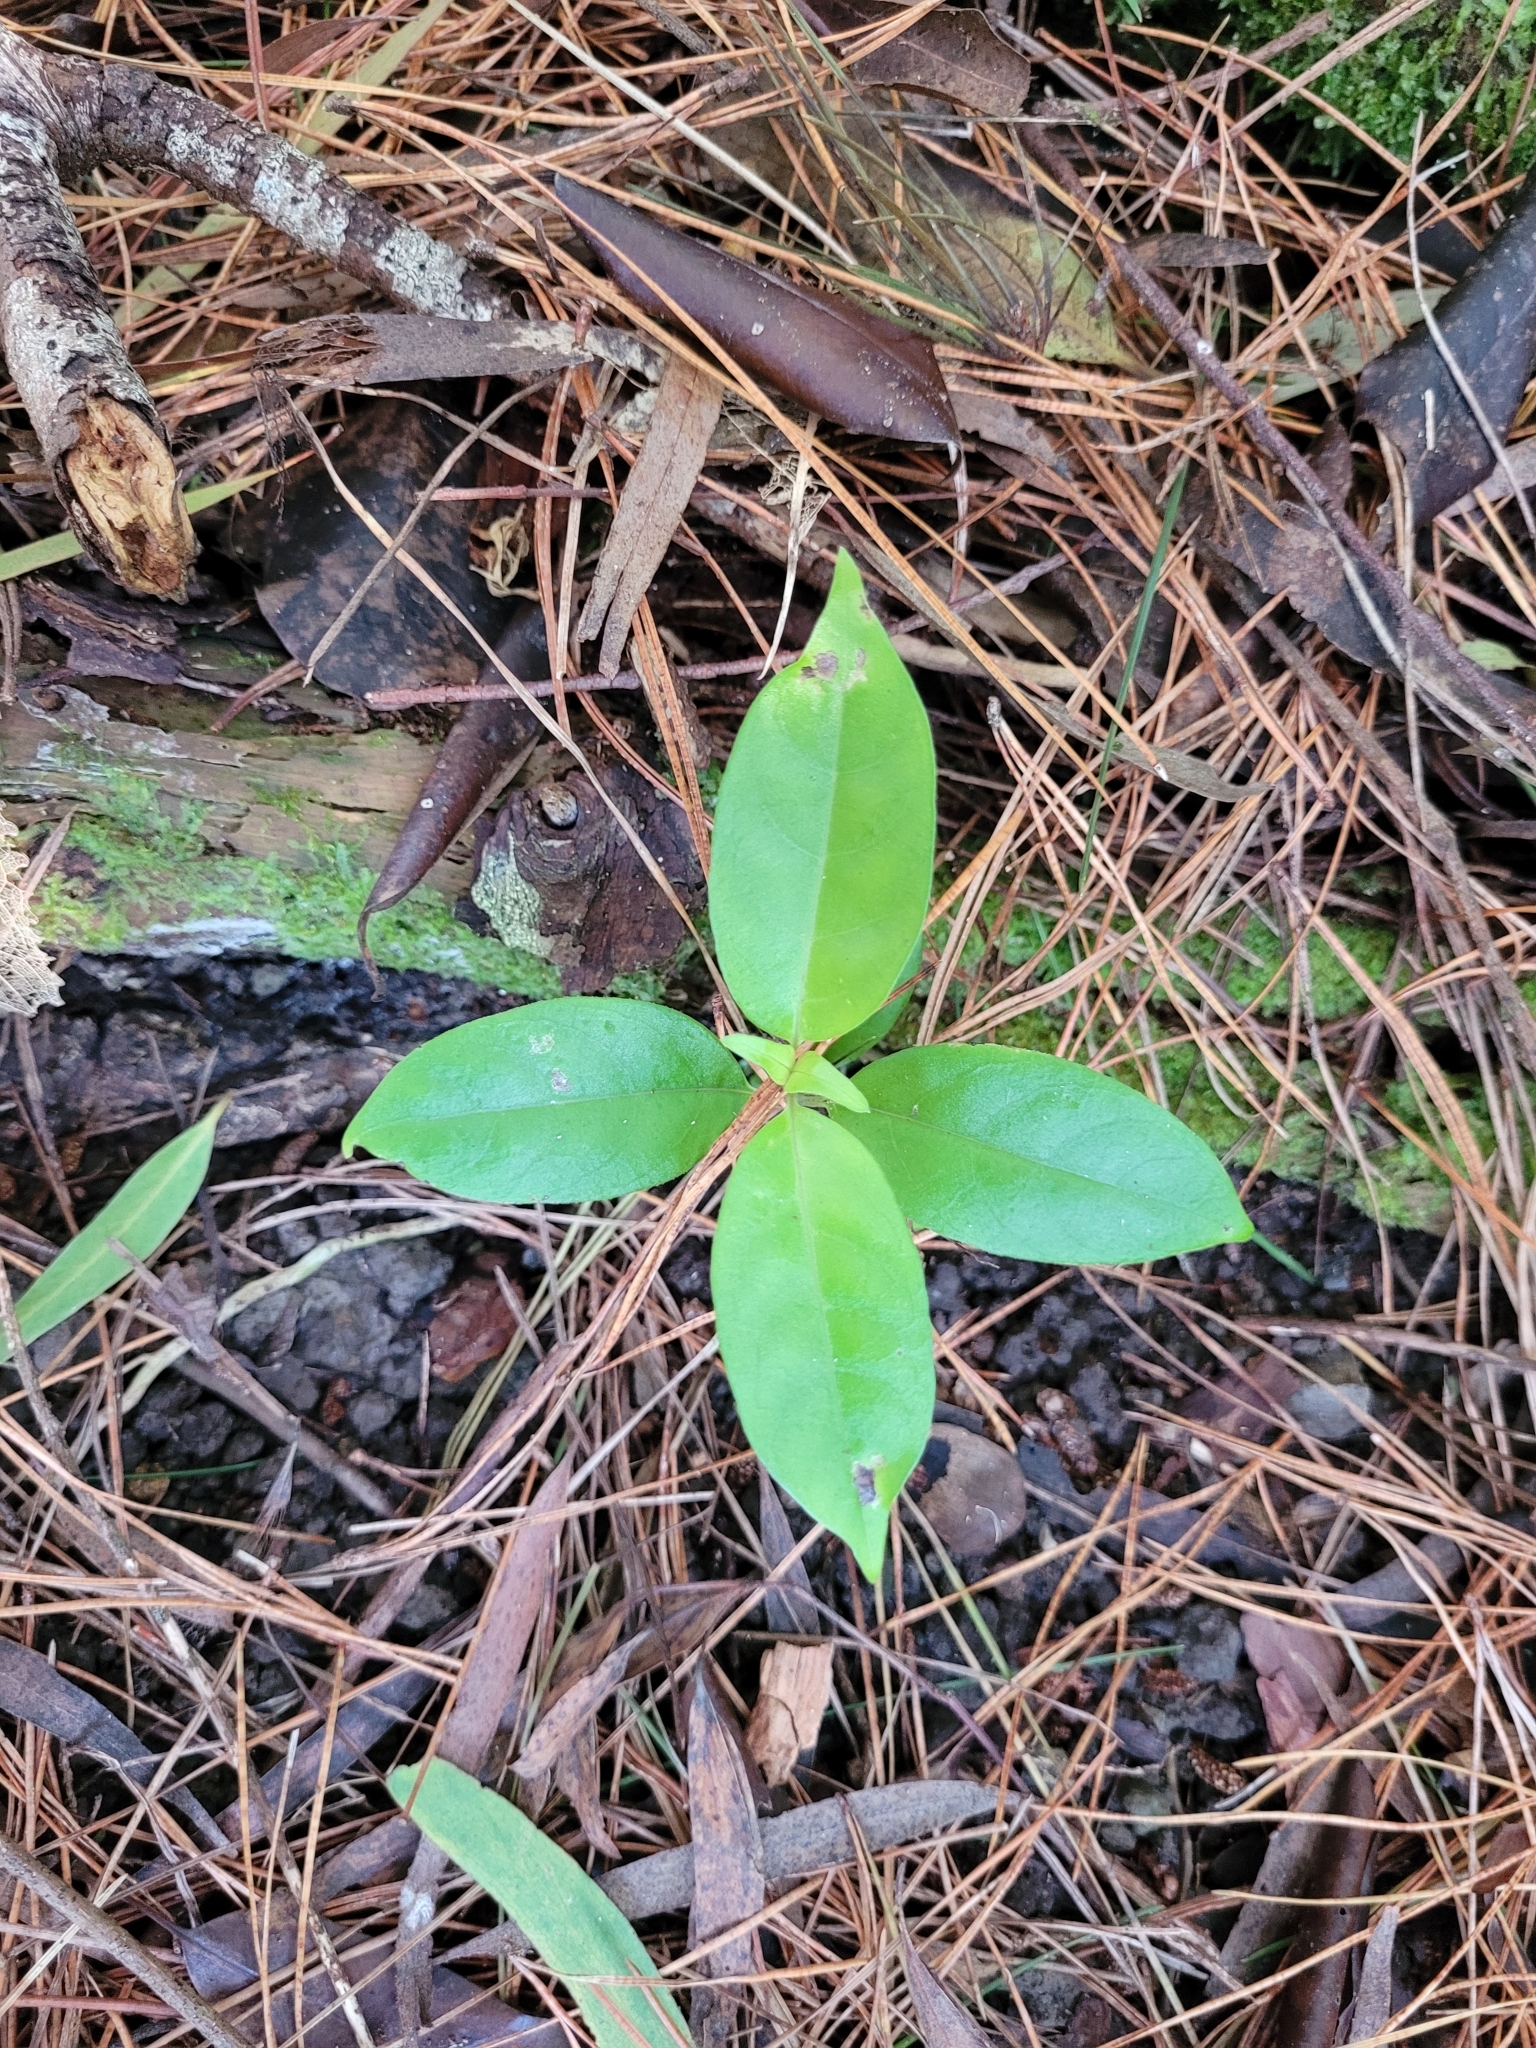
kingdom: Plantae
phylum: Tracheophyta
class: Magnoliopsida
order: Gentianales
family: Loganiaceae
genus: Geniostoma
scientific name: Geniostoma ligustrifolium
